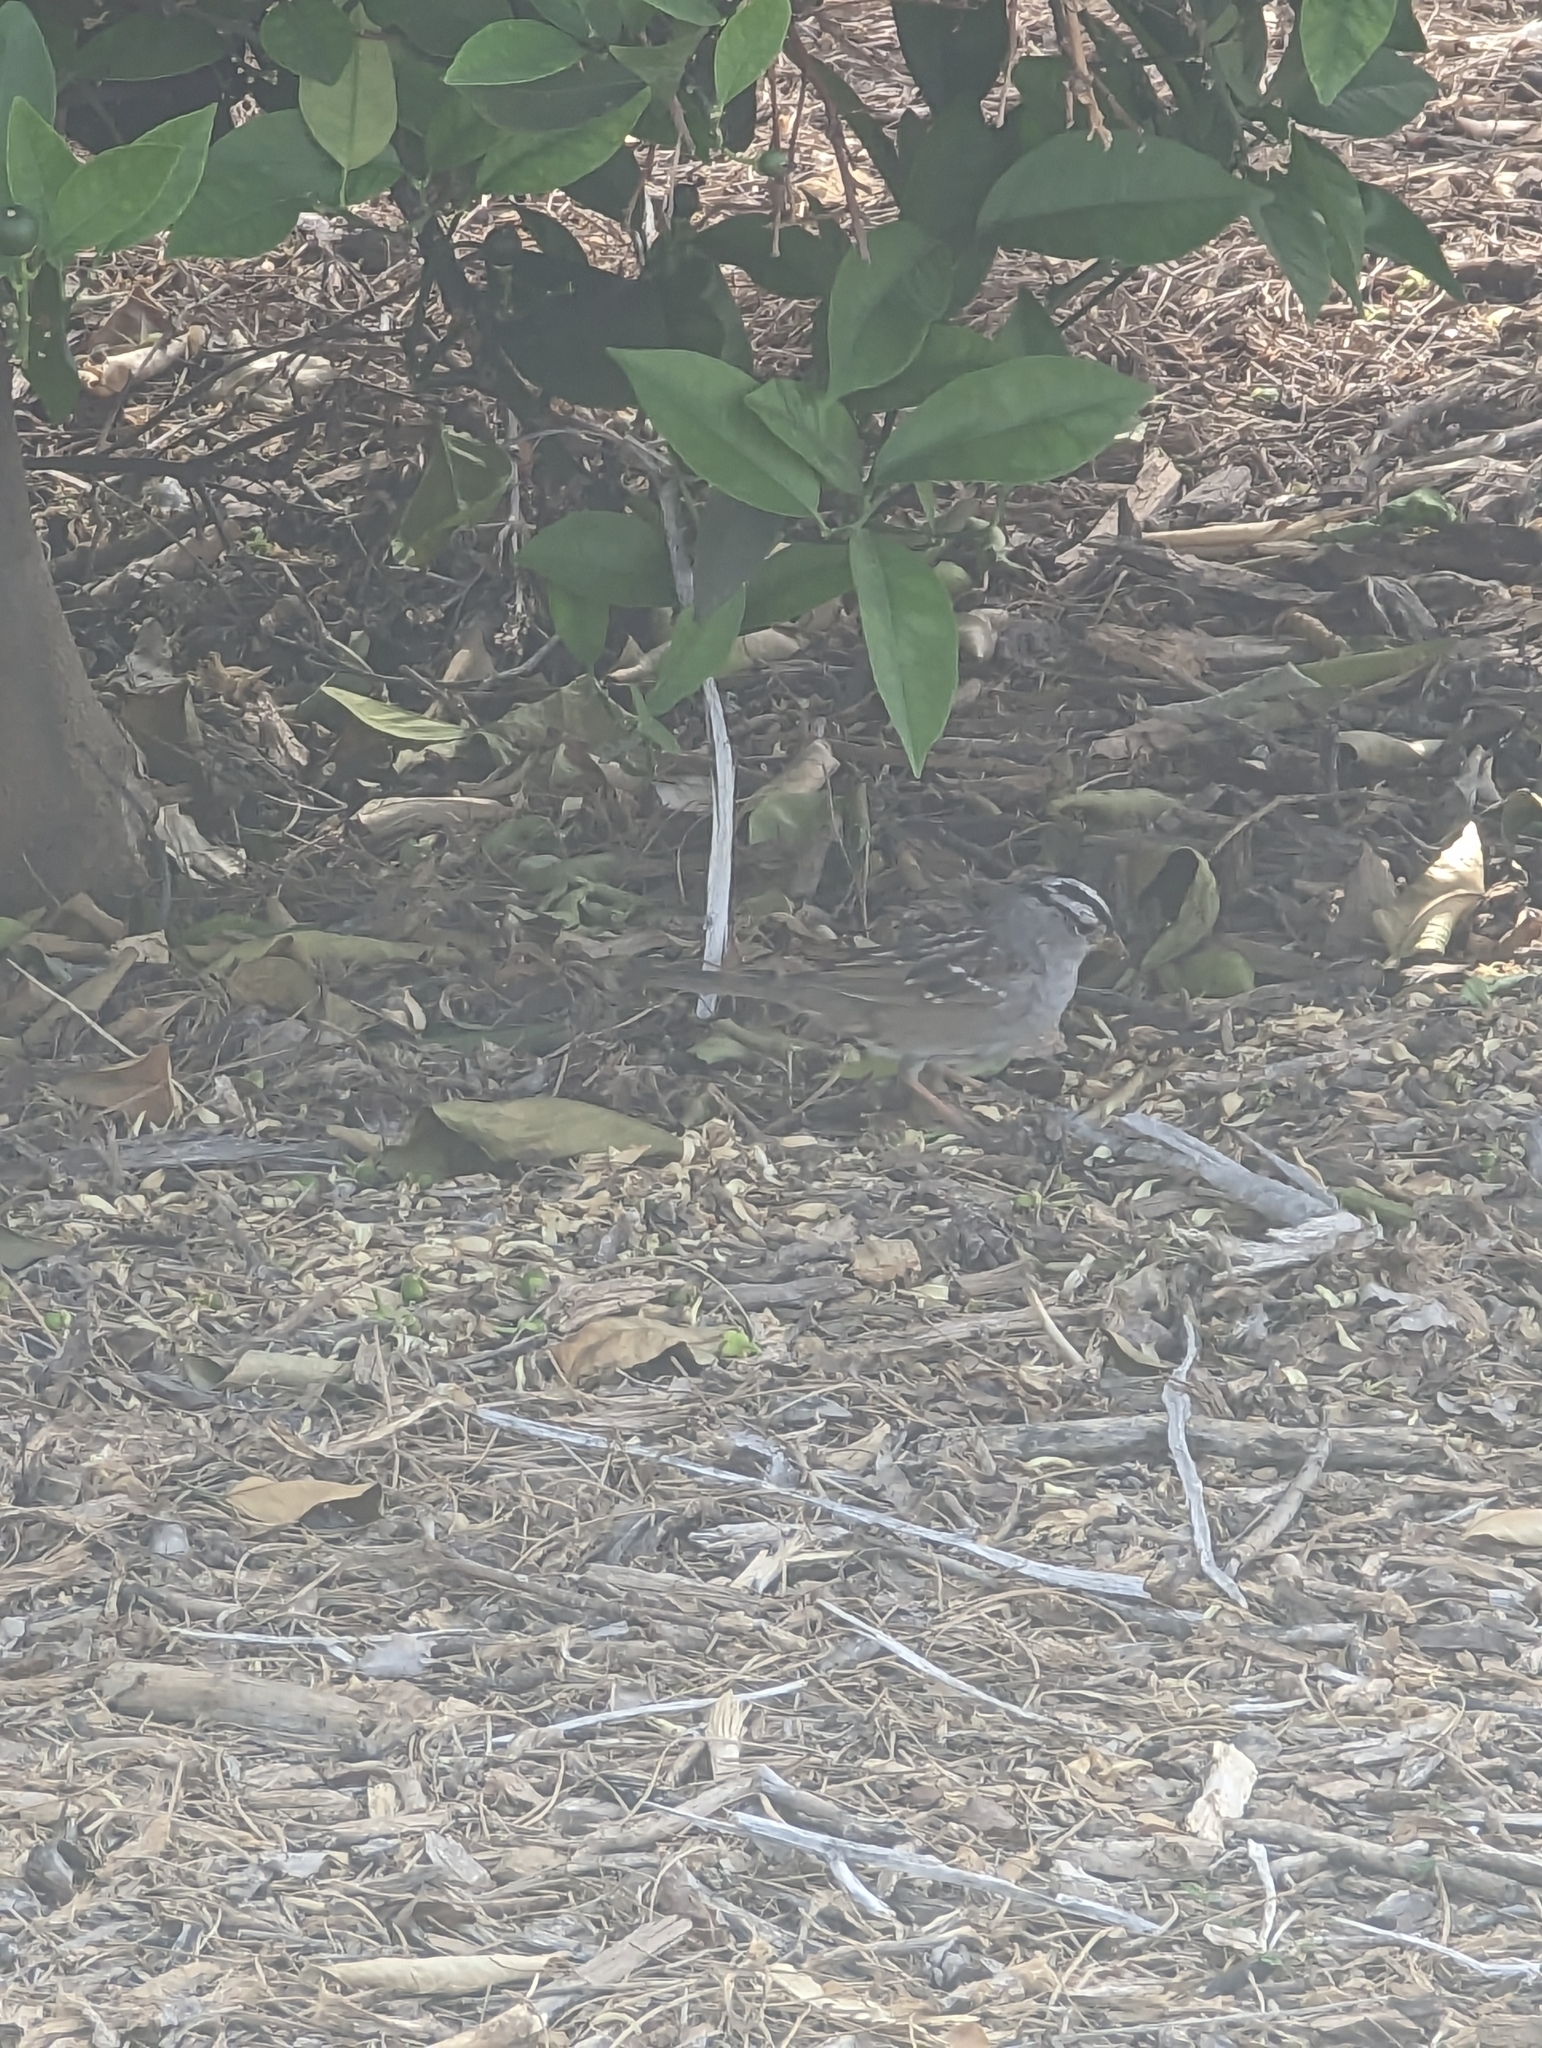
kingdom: Animalia
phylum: Chordata
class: Aves
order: Passeriformes
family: Passerellidae
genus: Zonotrichia
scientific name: Zonotrichia leucophrys
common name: White-crowned sparrow
